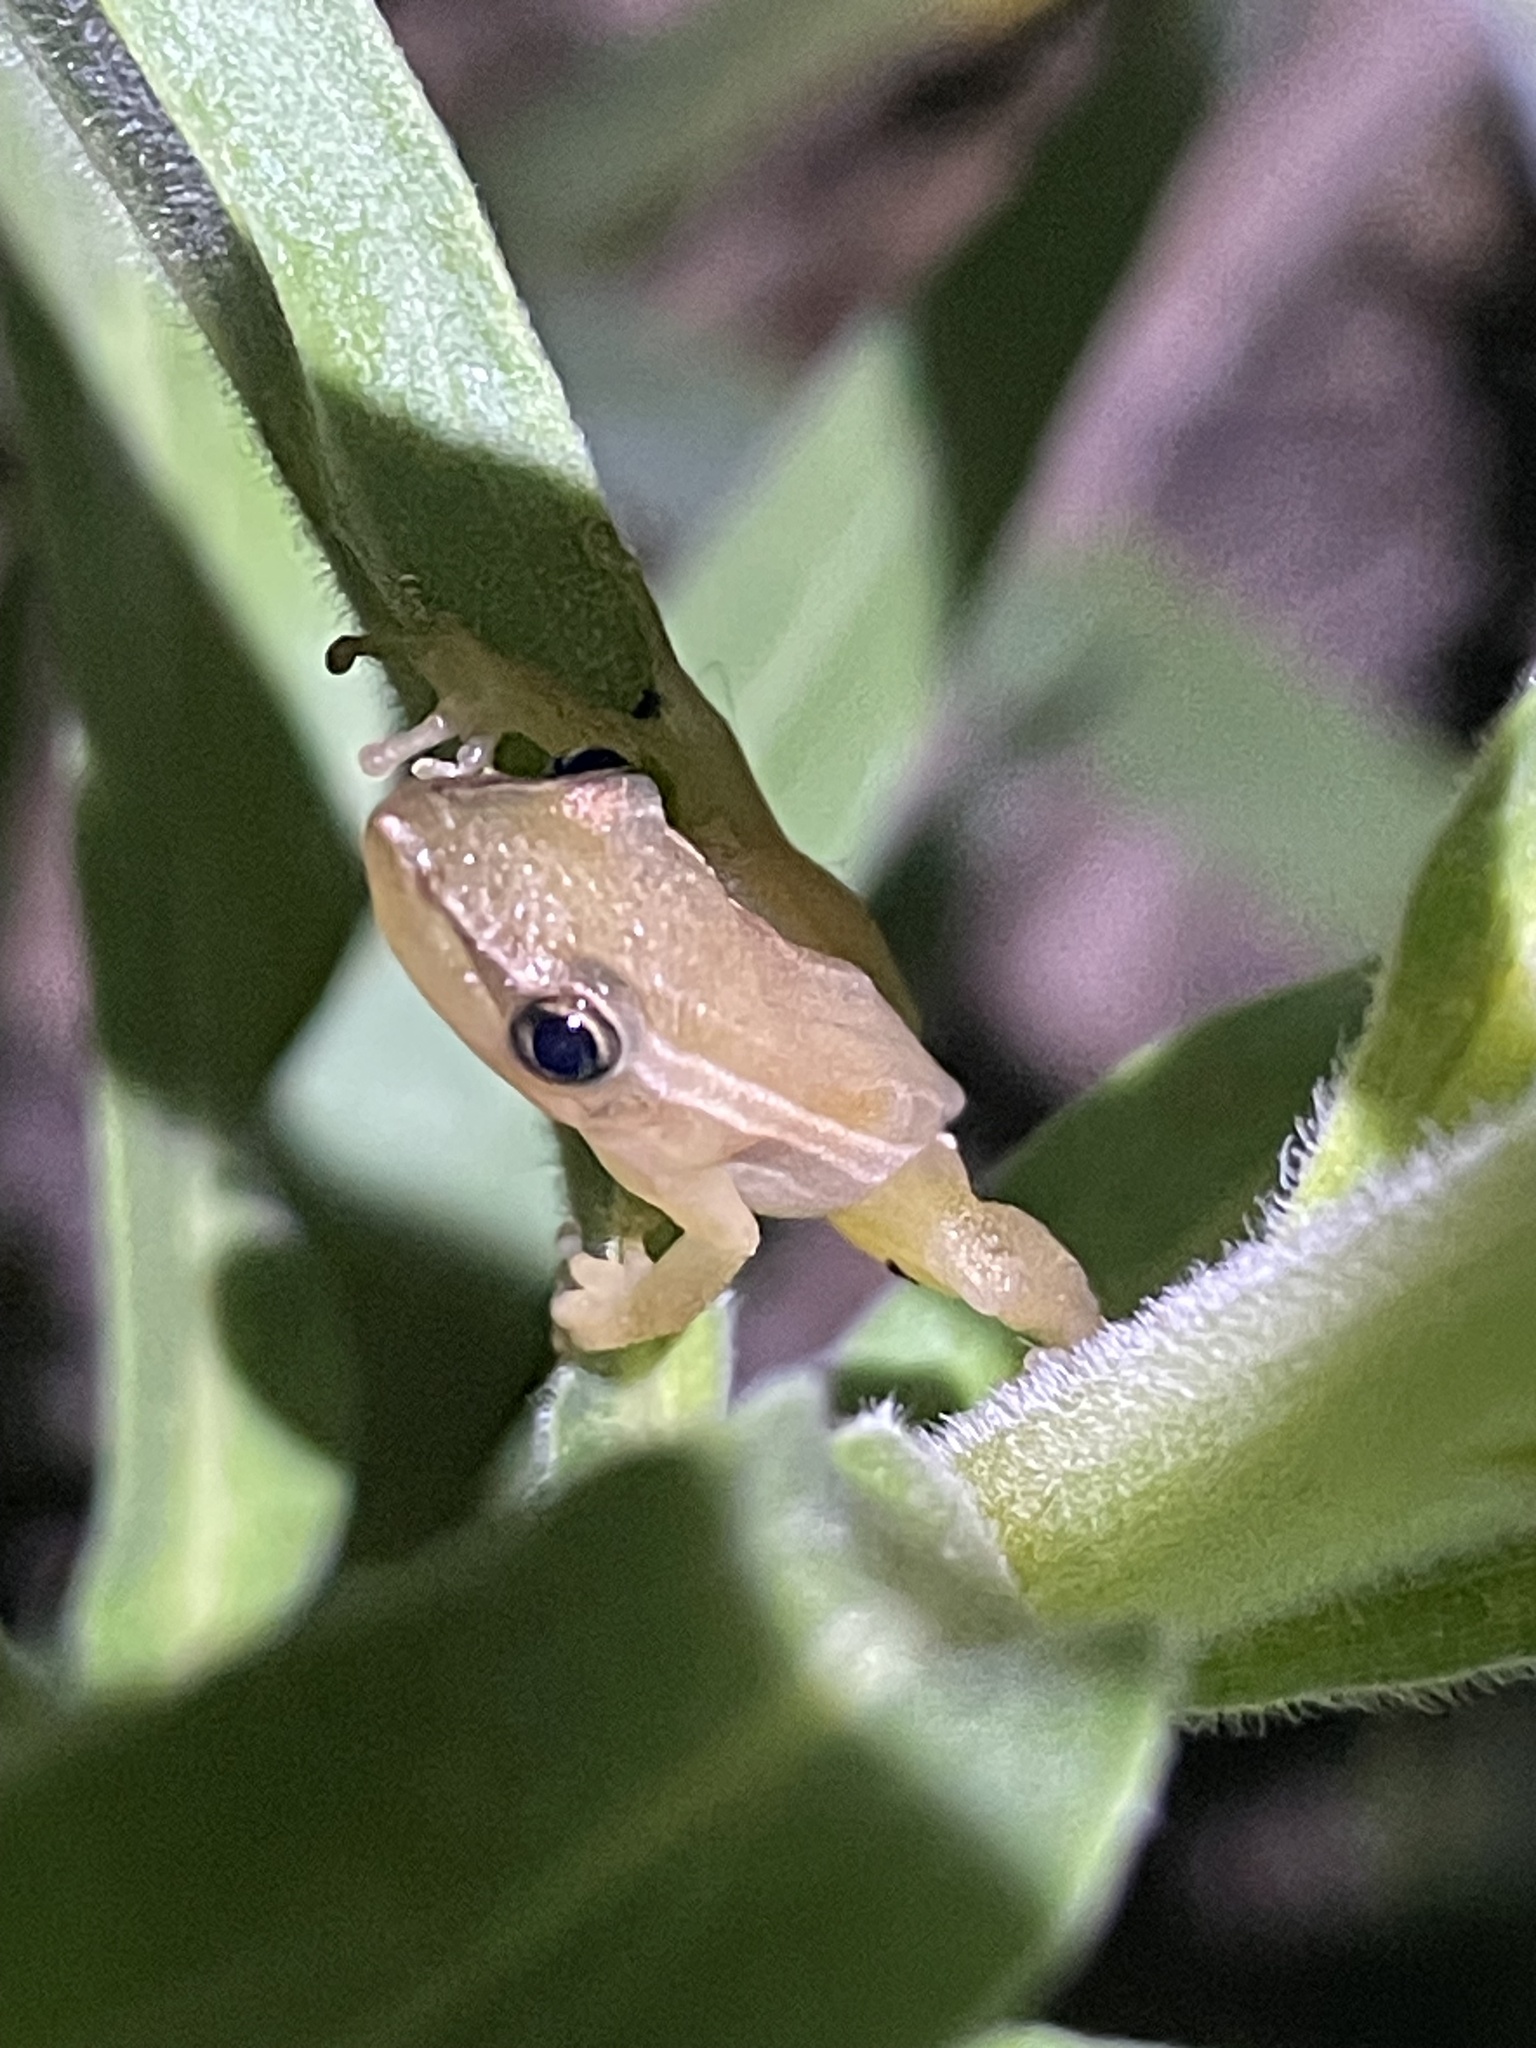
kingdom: Animalia
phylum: Chordata
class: Amphibia
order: Anura
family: Hylidae
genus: Scinax
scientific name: Scinax squalirostris
